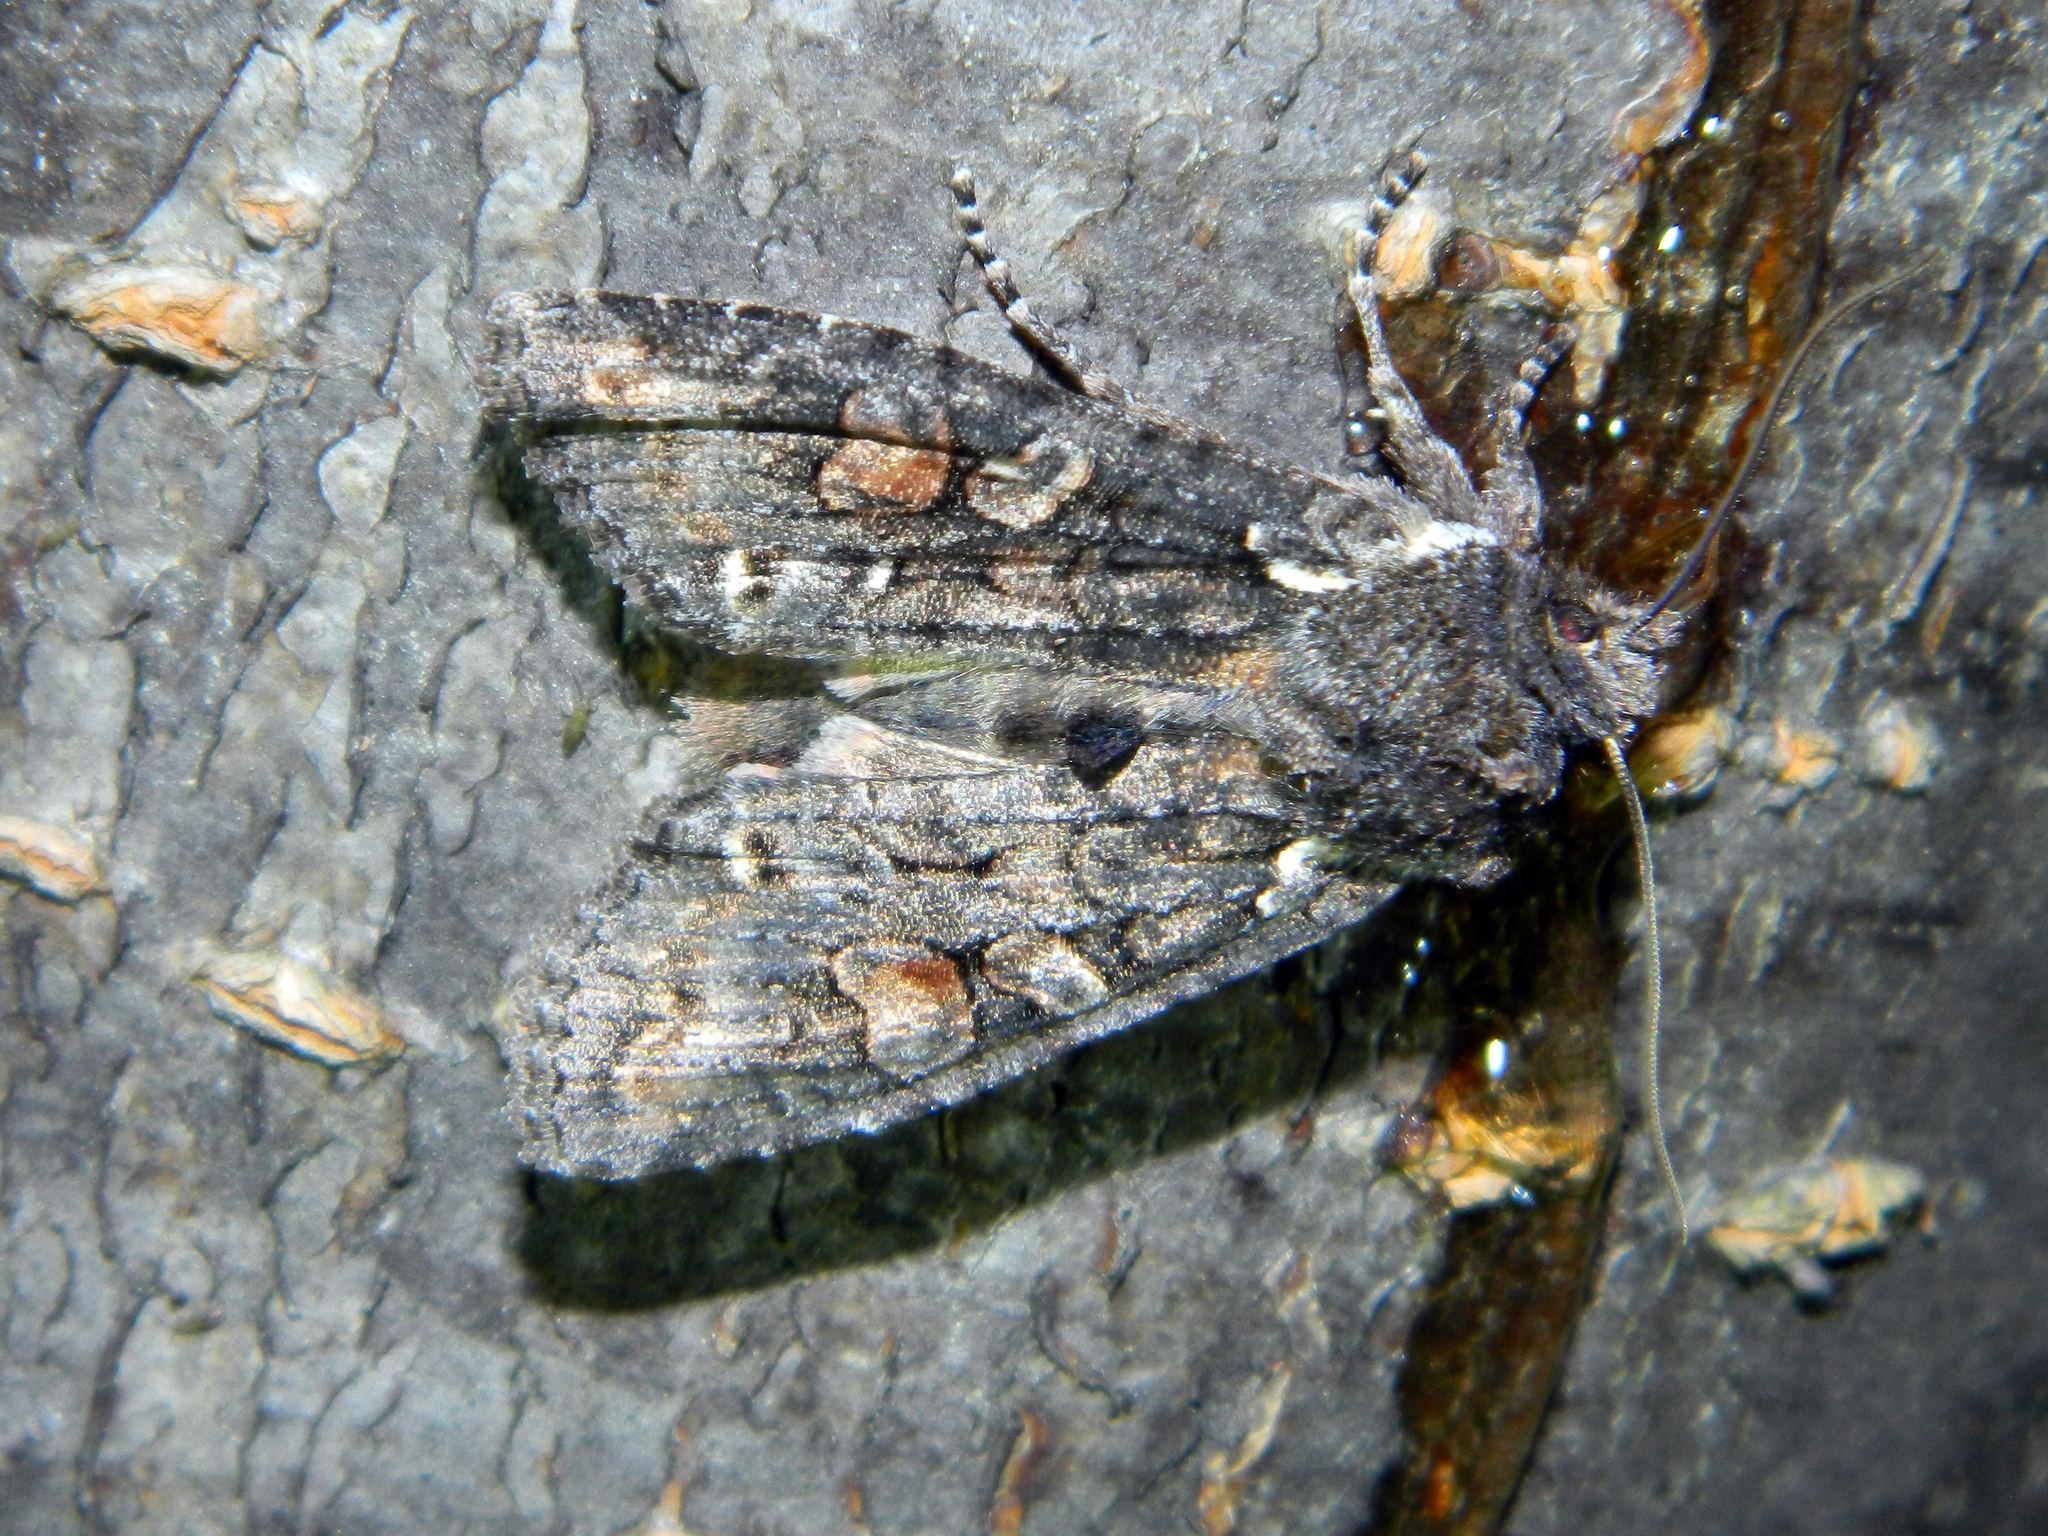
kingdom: Animalia
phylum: Arthropoda
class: Insecta
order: Lepidoptera
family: Noctuidae
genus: Lithophane
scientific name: Lithophane pexata
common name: Plush-naped pinion moth
